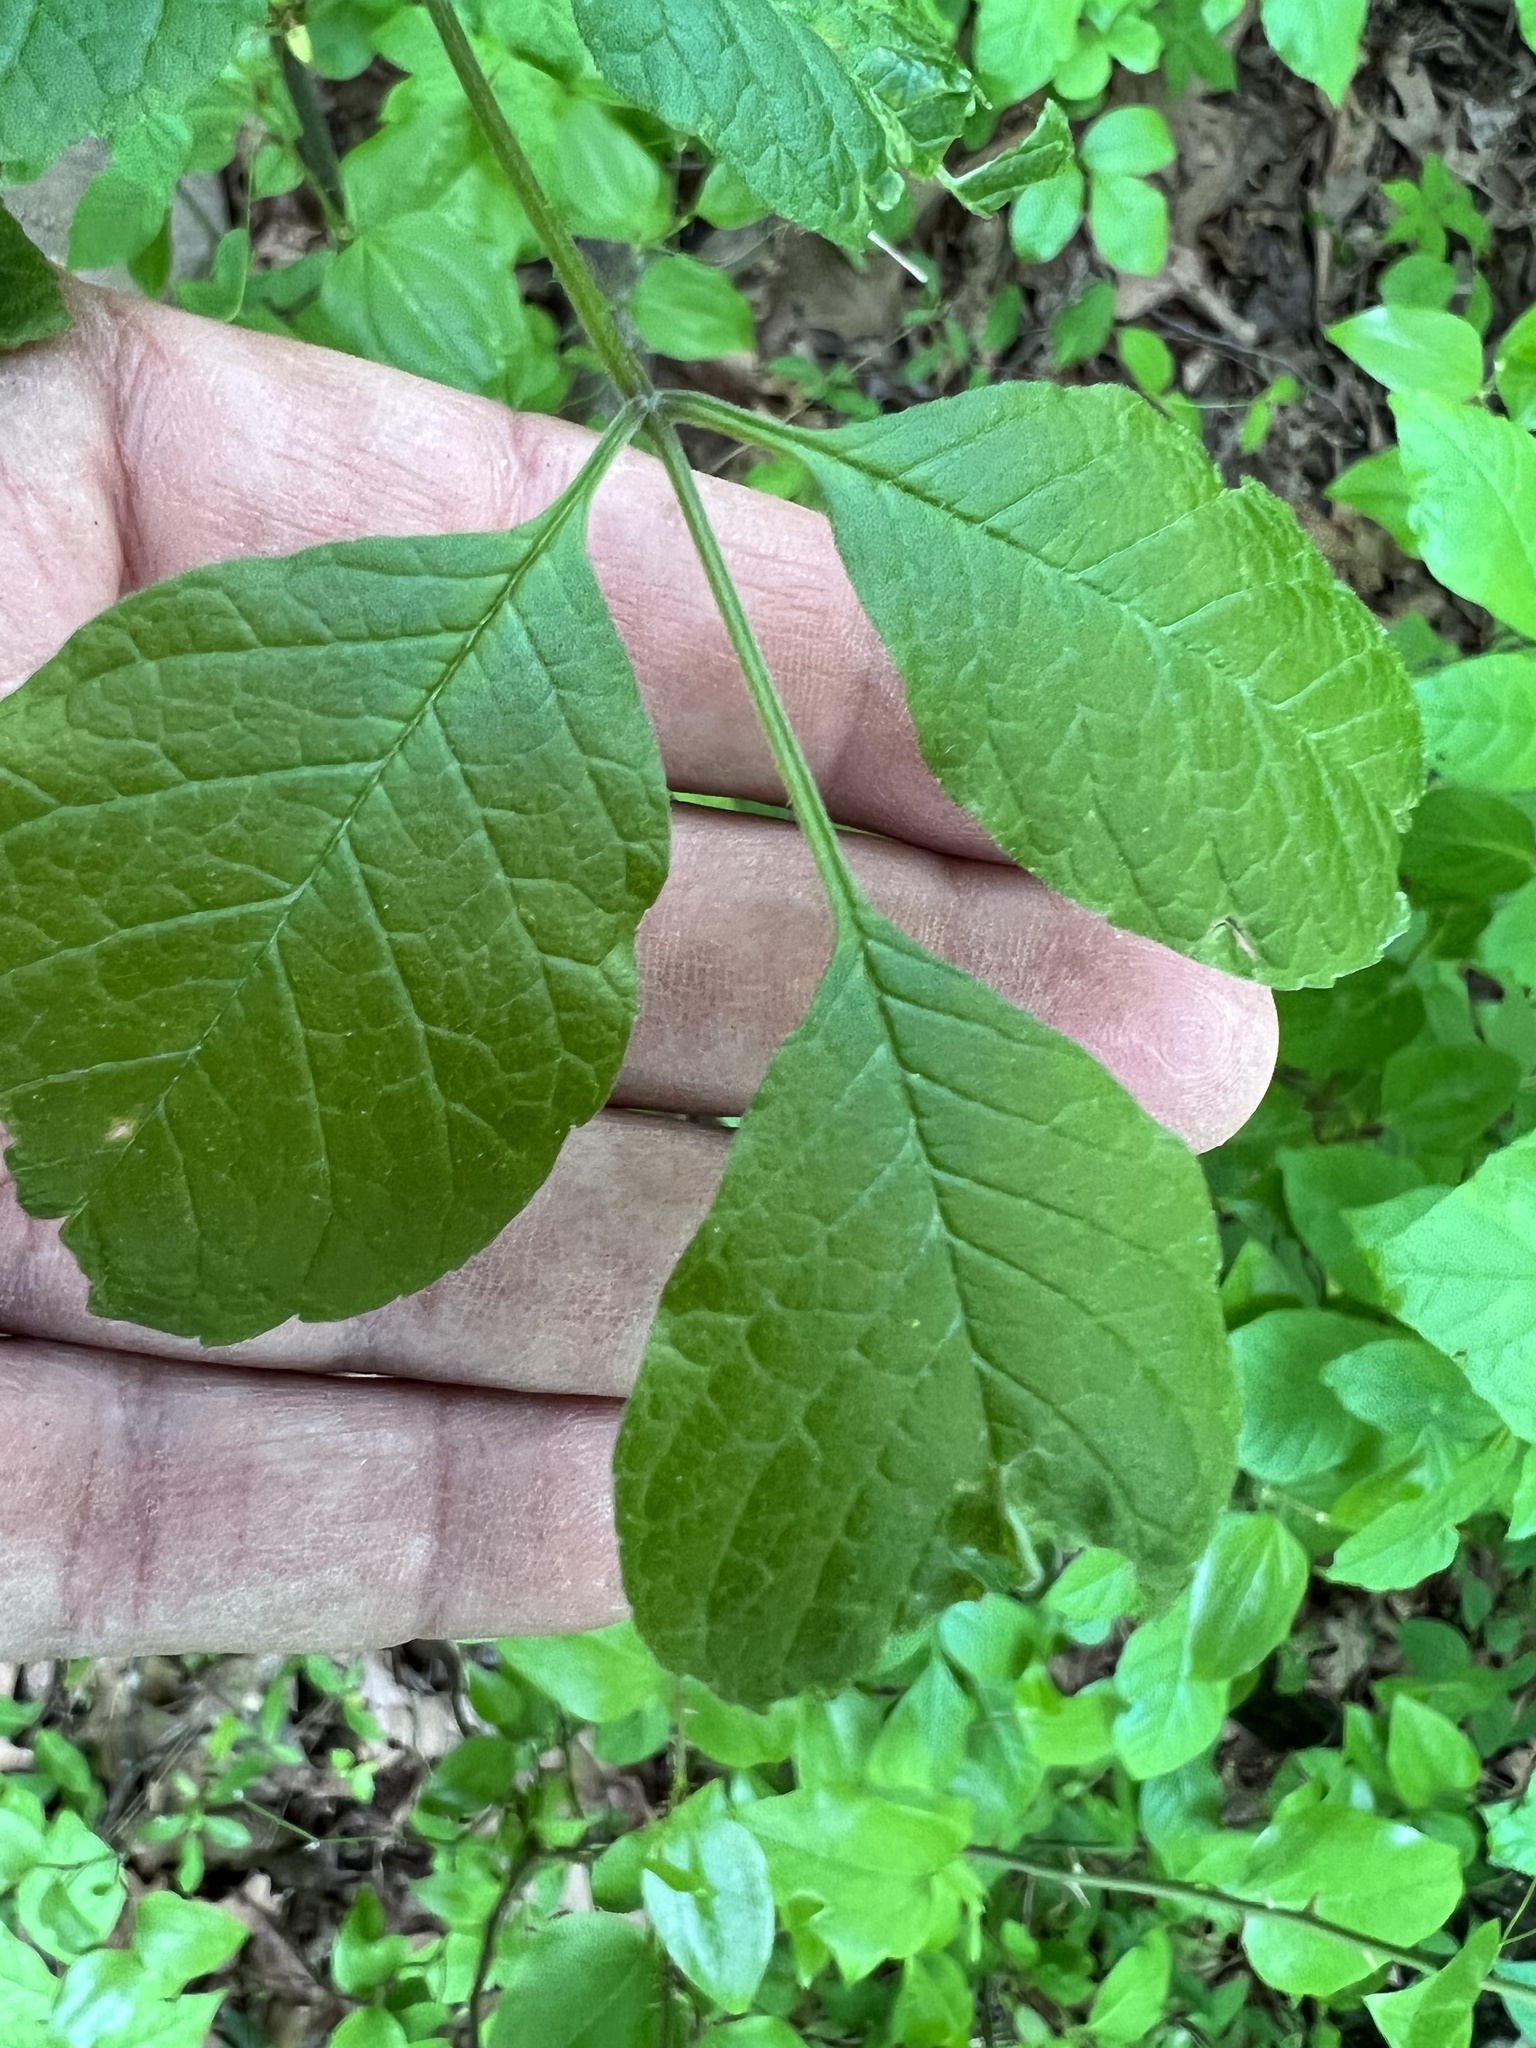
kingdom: Animalia
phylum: Arthropoda
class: Insecta
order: Diptera
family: Cecidomyiidae
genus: Dasineura
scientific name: Dasineura tumidosae
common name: Ash petiole gall midge
